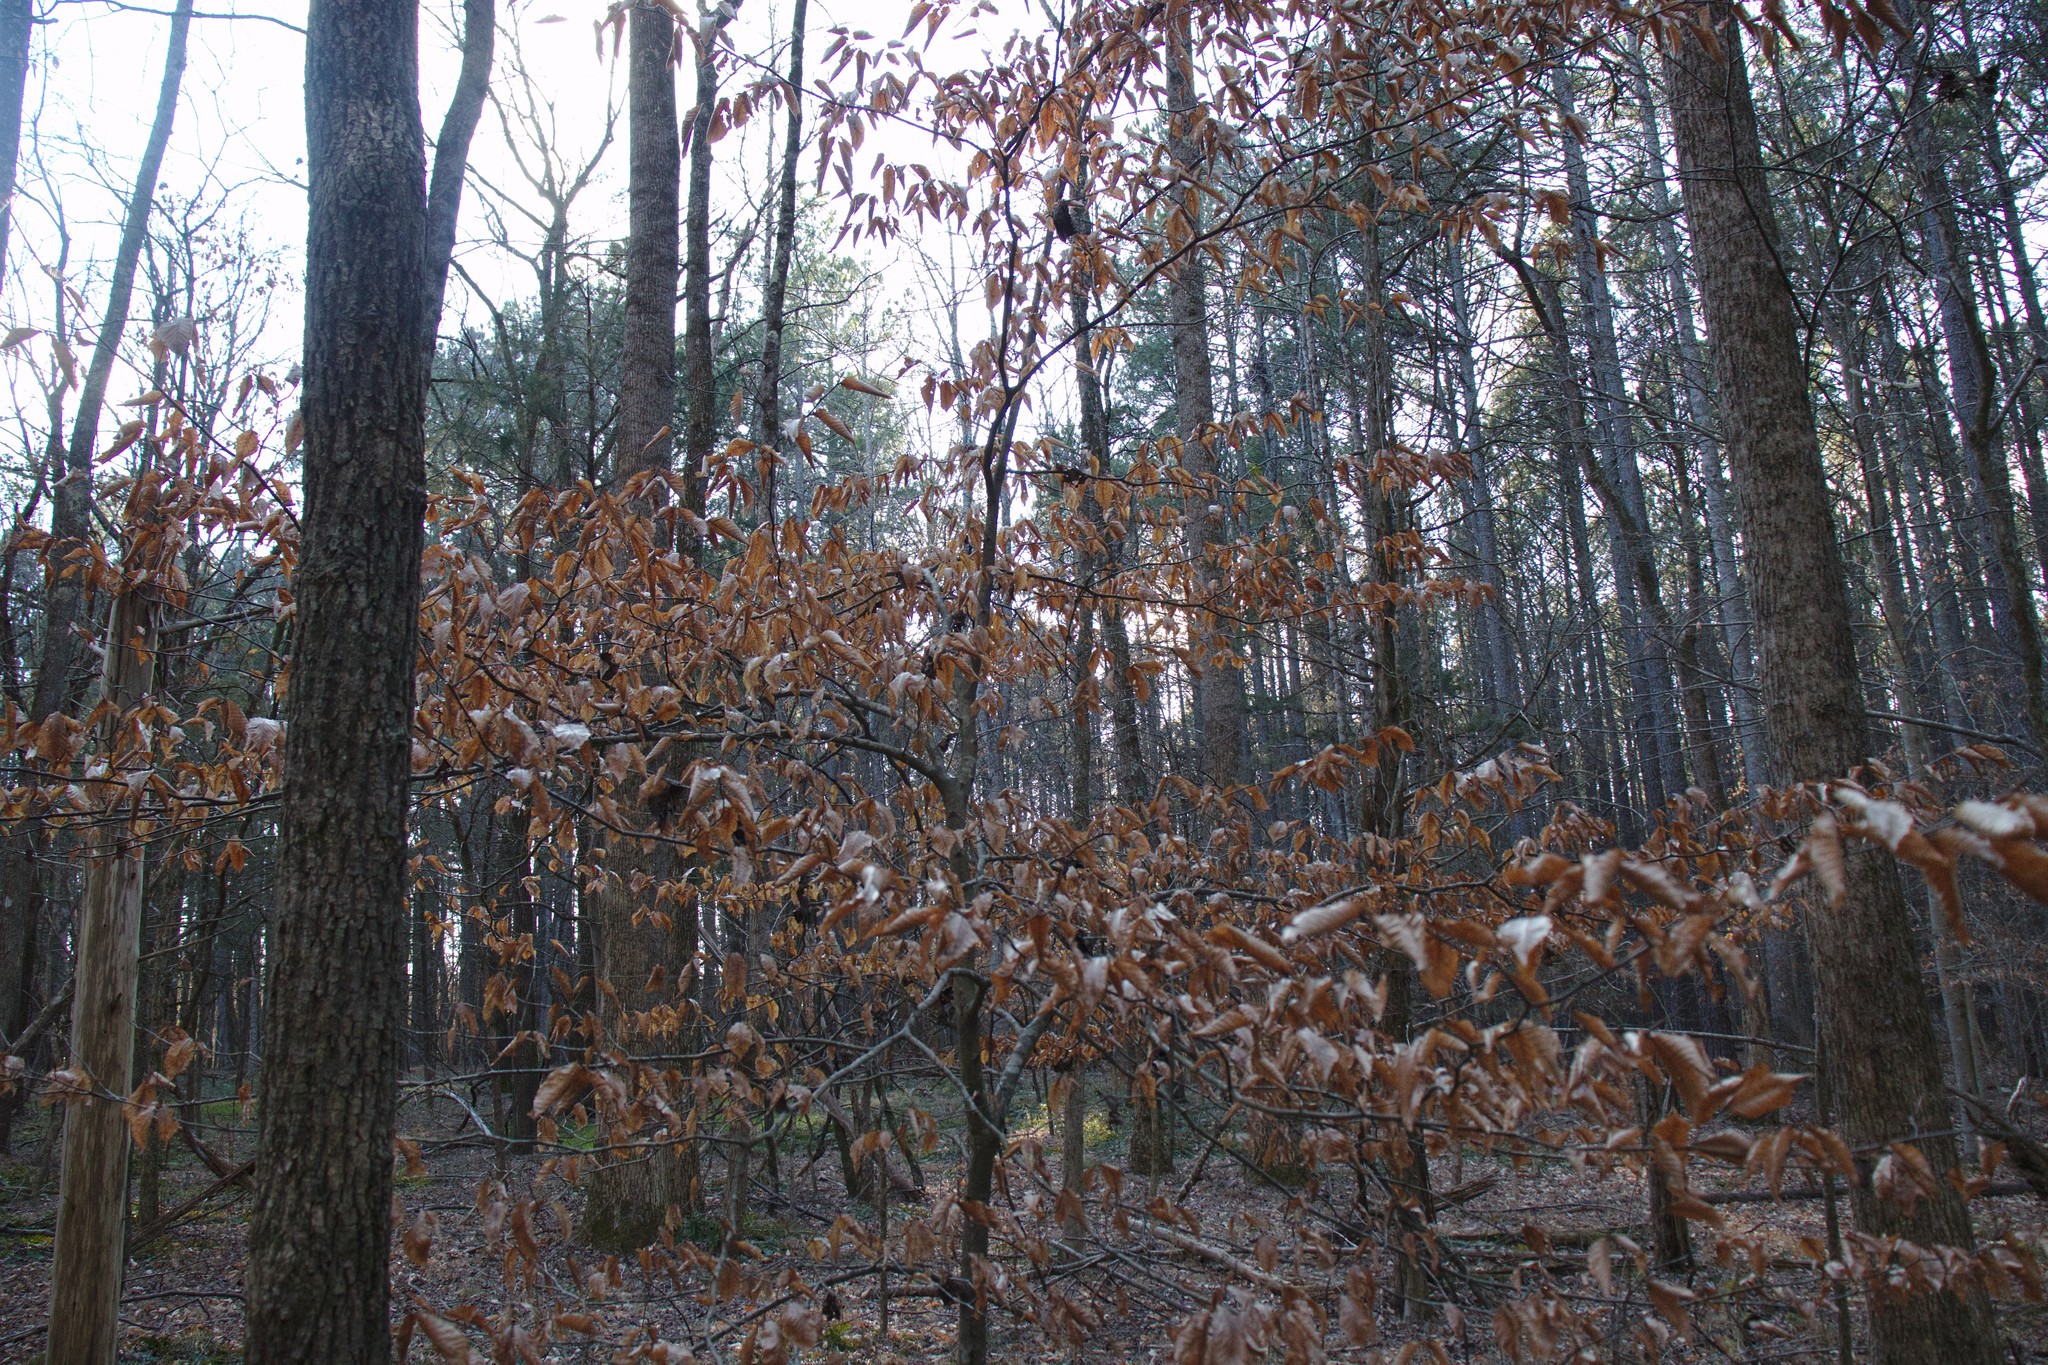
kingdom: Plantae
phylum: Tracheophyta
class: Magnoliopsida
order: Fagales
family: Fagaceae
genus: Fagus
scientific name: Fagus grandifolia
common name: American beech
